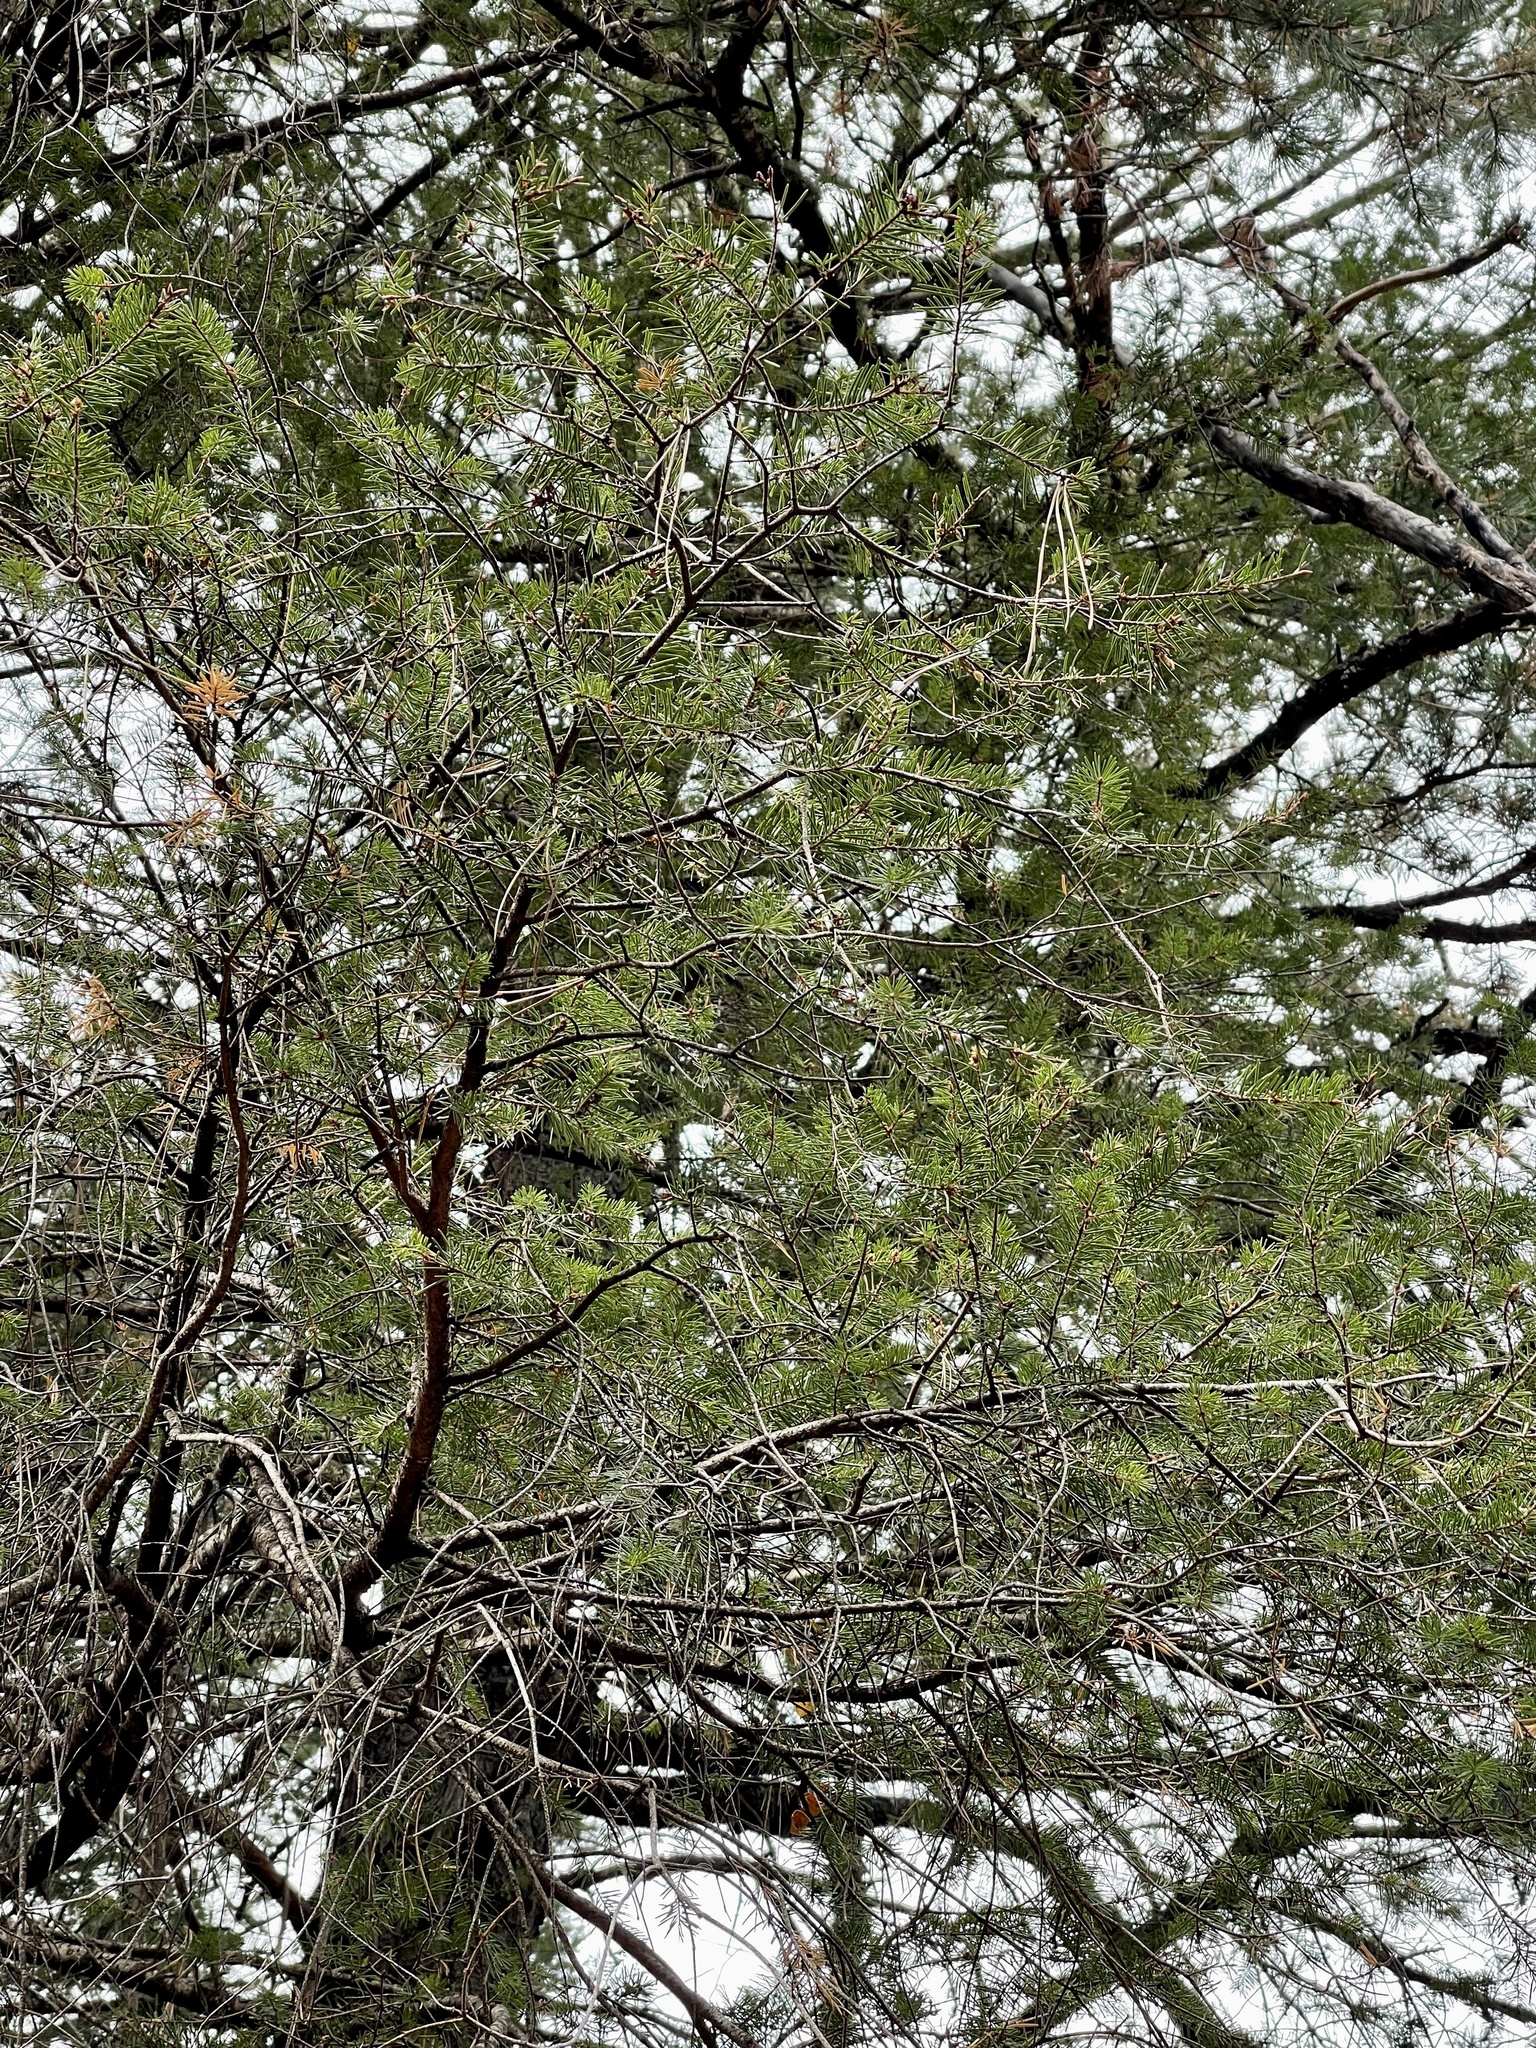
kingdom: Plantae
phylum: Tracheophyta
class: Pinopsida
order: Pinales
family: Pinaceae
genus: Pseudotsuga
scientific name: Pseudotsuga menziesii
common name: Douglas fir
